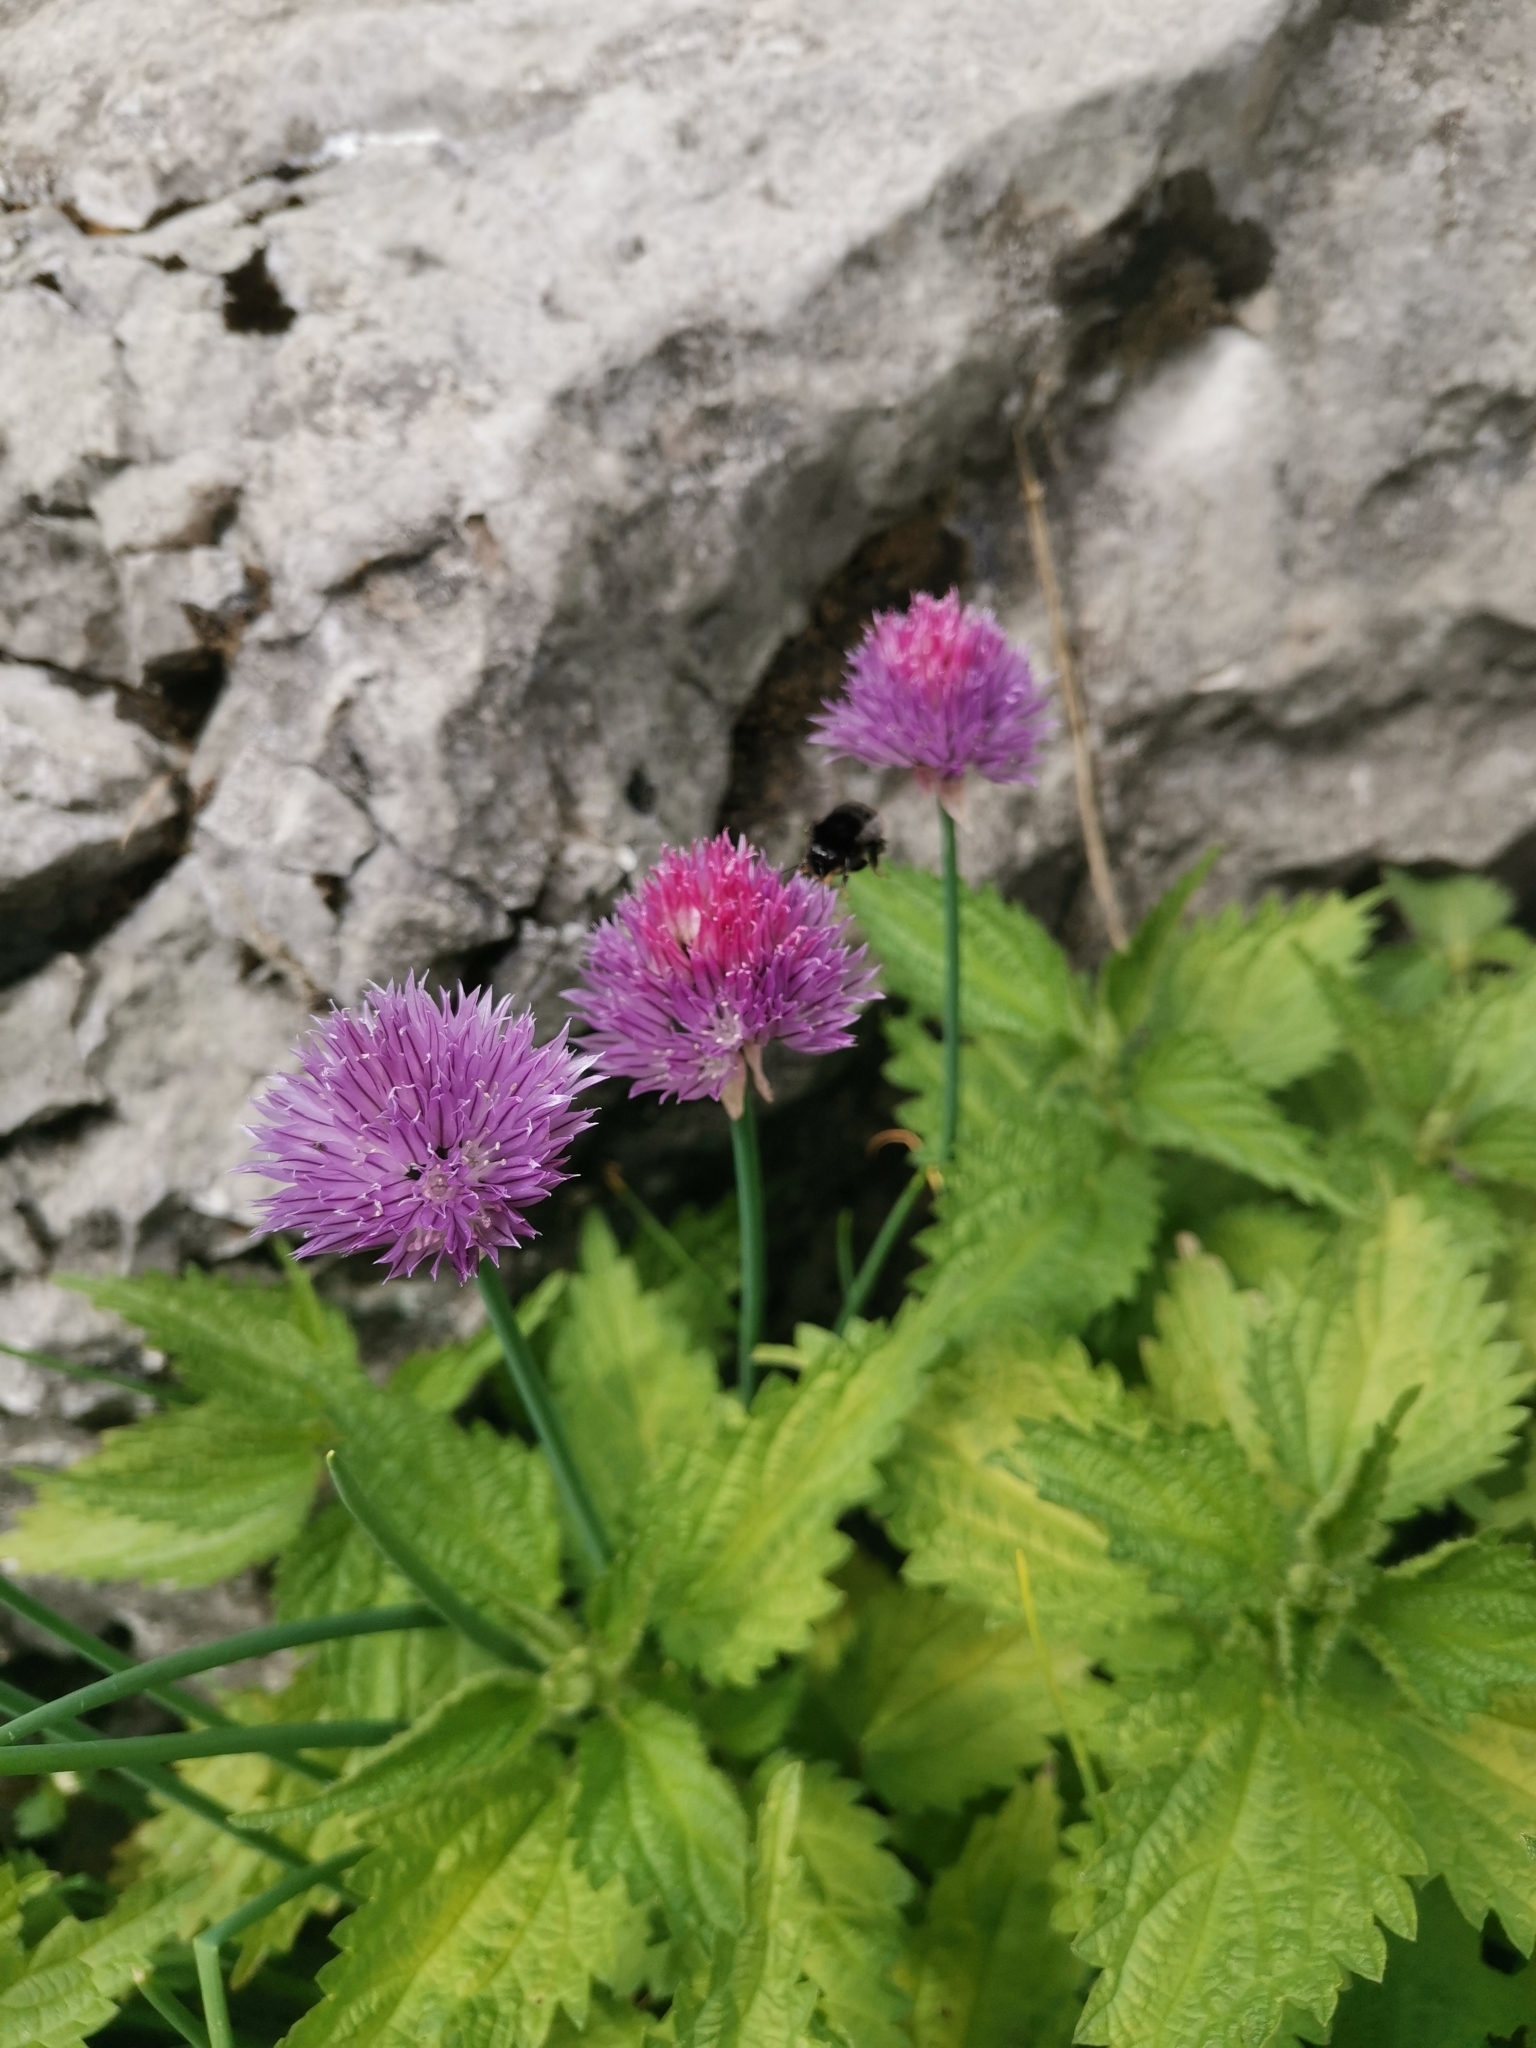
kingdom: Plantae
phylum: Tracheophyta
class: Liliopsida
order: Asparagales
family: Amaryllidaceae
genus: Allium
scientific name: Allium schoenoprasum
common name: Chives
